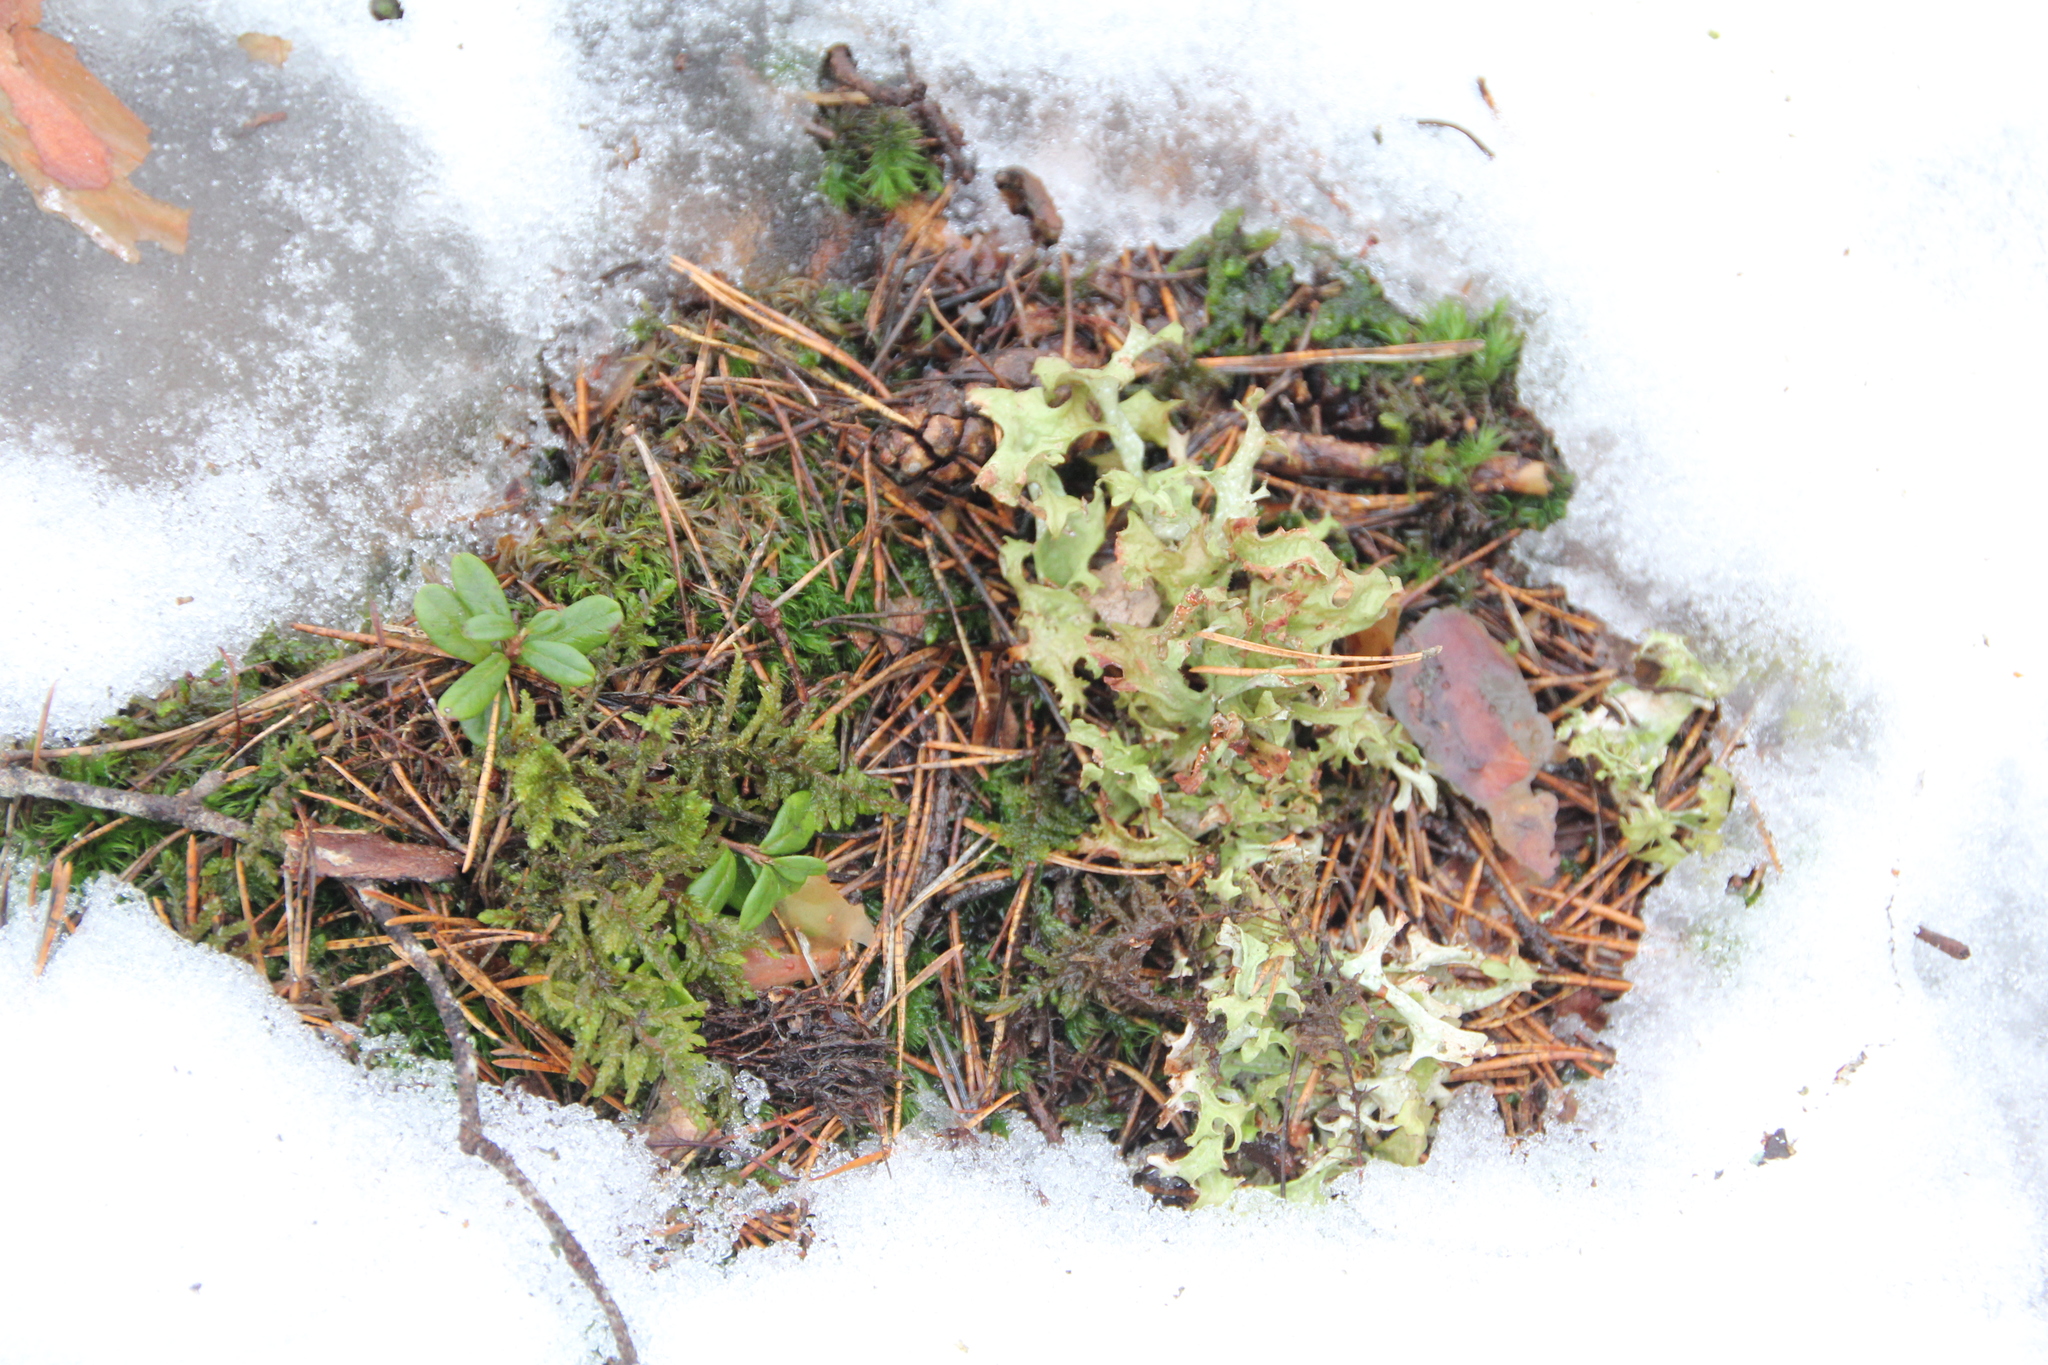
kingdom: Fungi
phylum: Ascomycota
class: Lecanoromycetes
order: Lecanorales
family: Parmeliaceae
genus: Cetraria
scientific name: Cetraria islandica
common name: Iceland lichen
